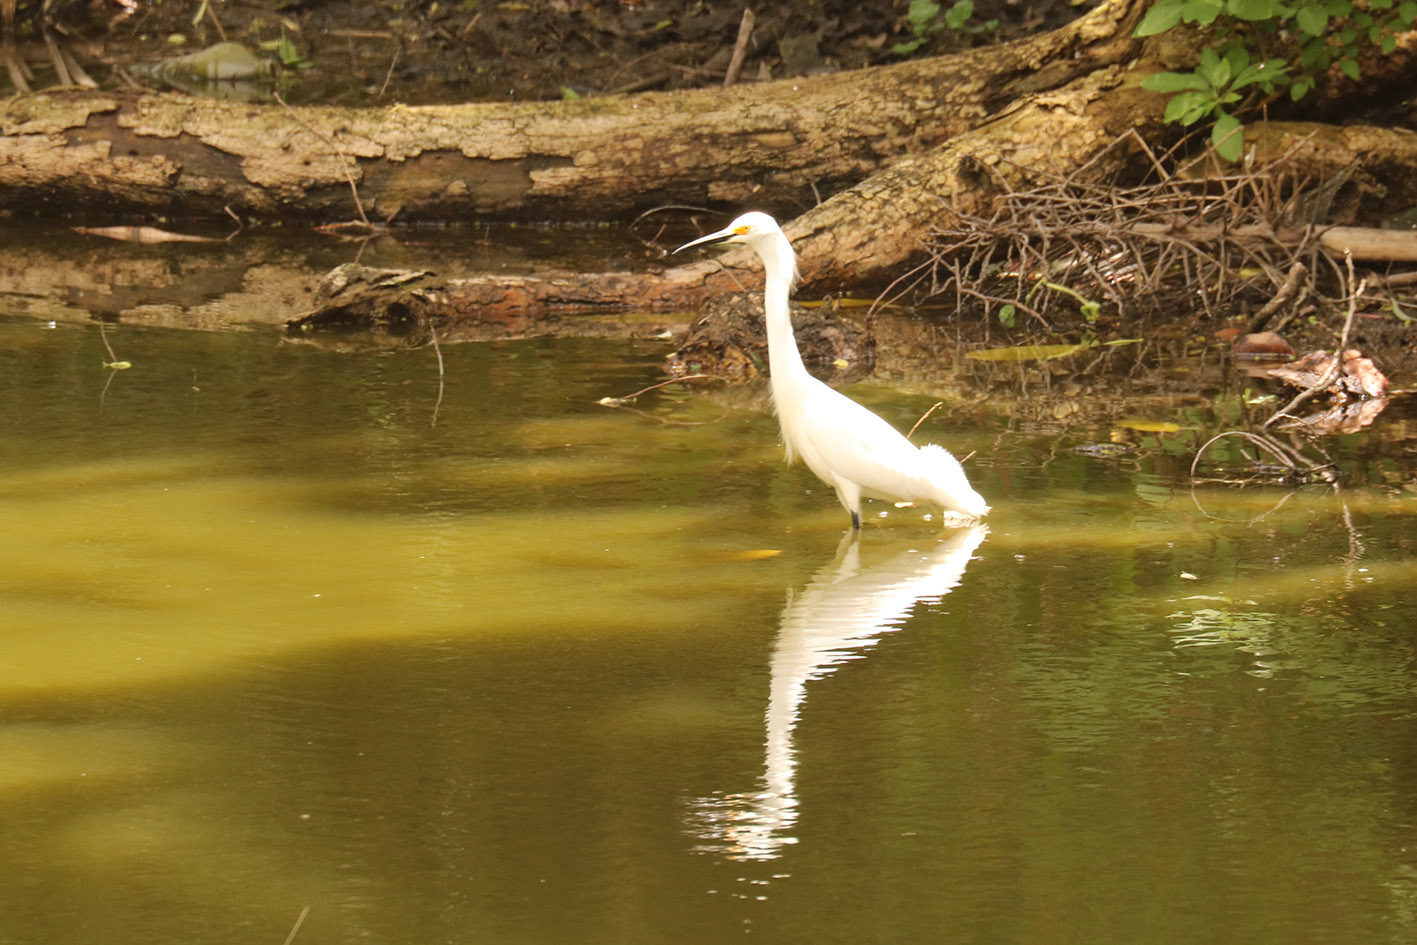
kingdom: Animalia
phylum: Chordata
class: Aves
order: Pelecaniformes
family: Ardeidae
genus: Egretta
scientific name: Egretta thula
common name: Snowy egret
